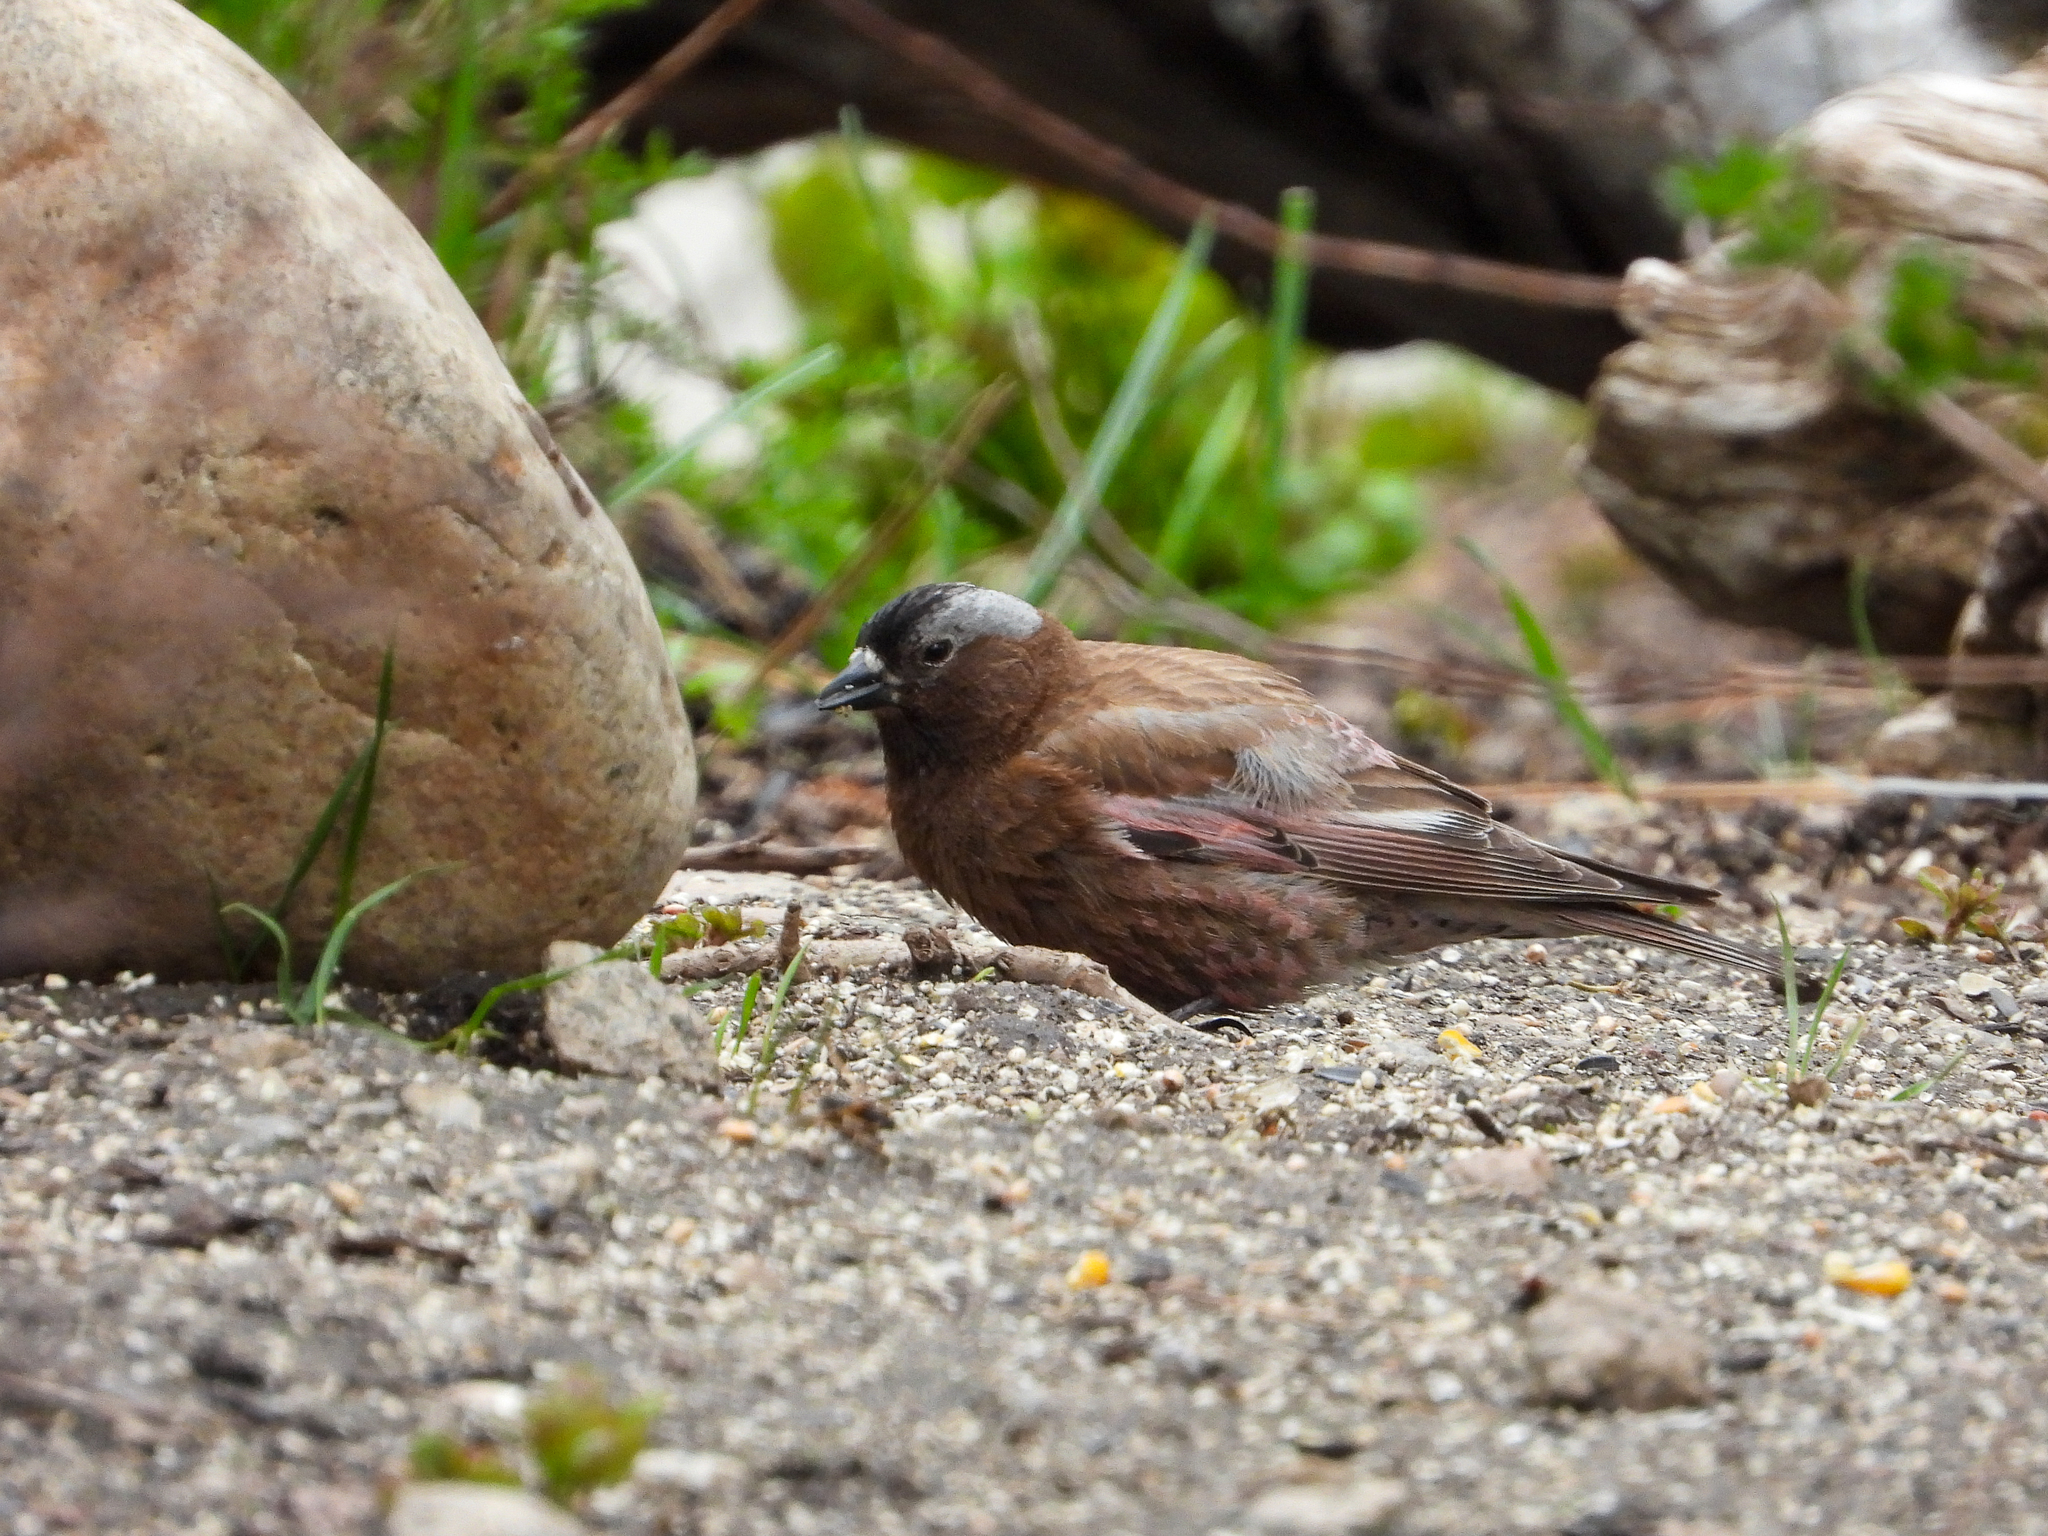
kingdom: Animalia
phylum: Chordata
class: Aves
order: Passeriformes
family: Fringillidae
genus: Leucosticte
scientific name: Leucosticte tephrocotis
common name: Gray-crowned rosy-finch
